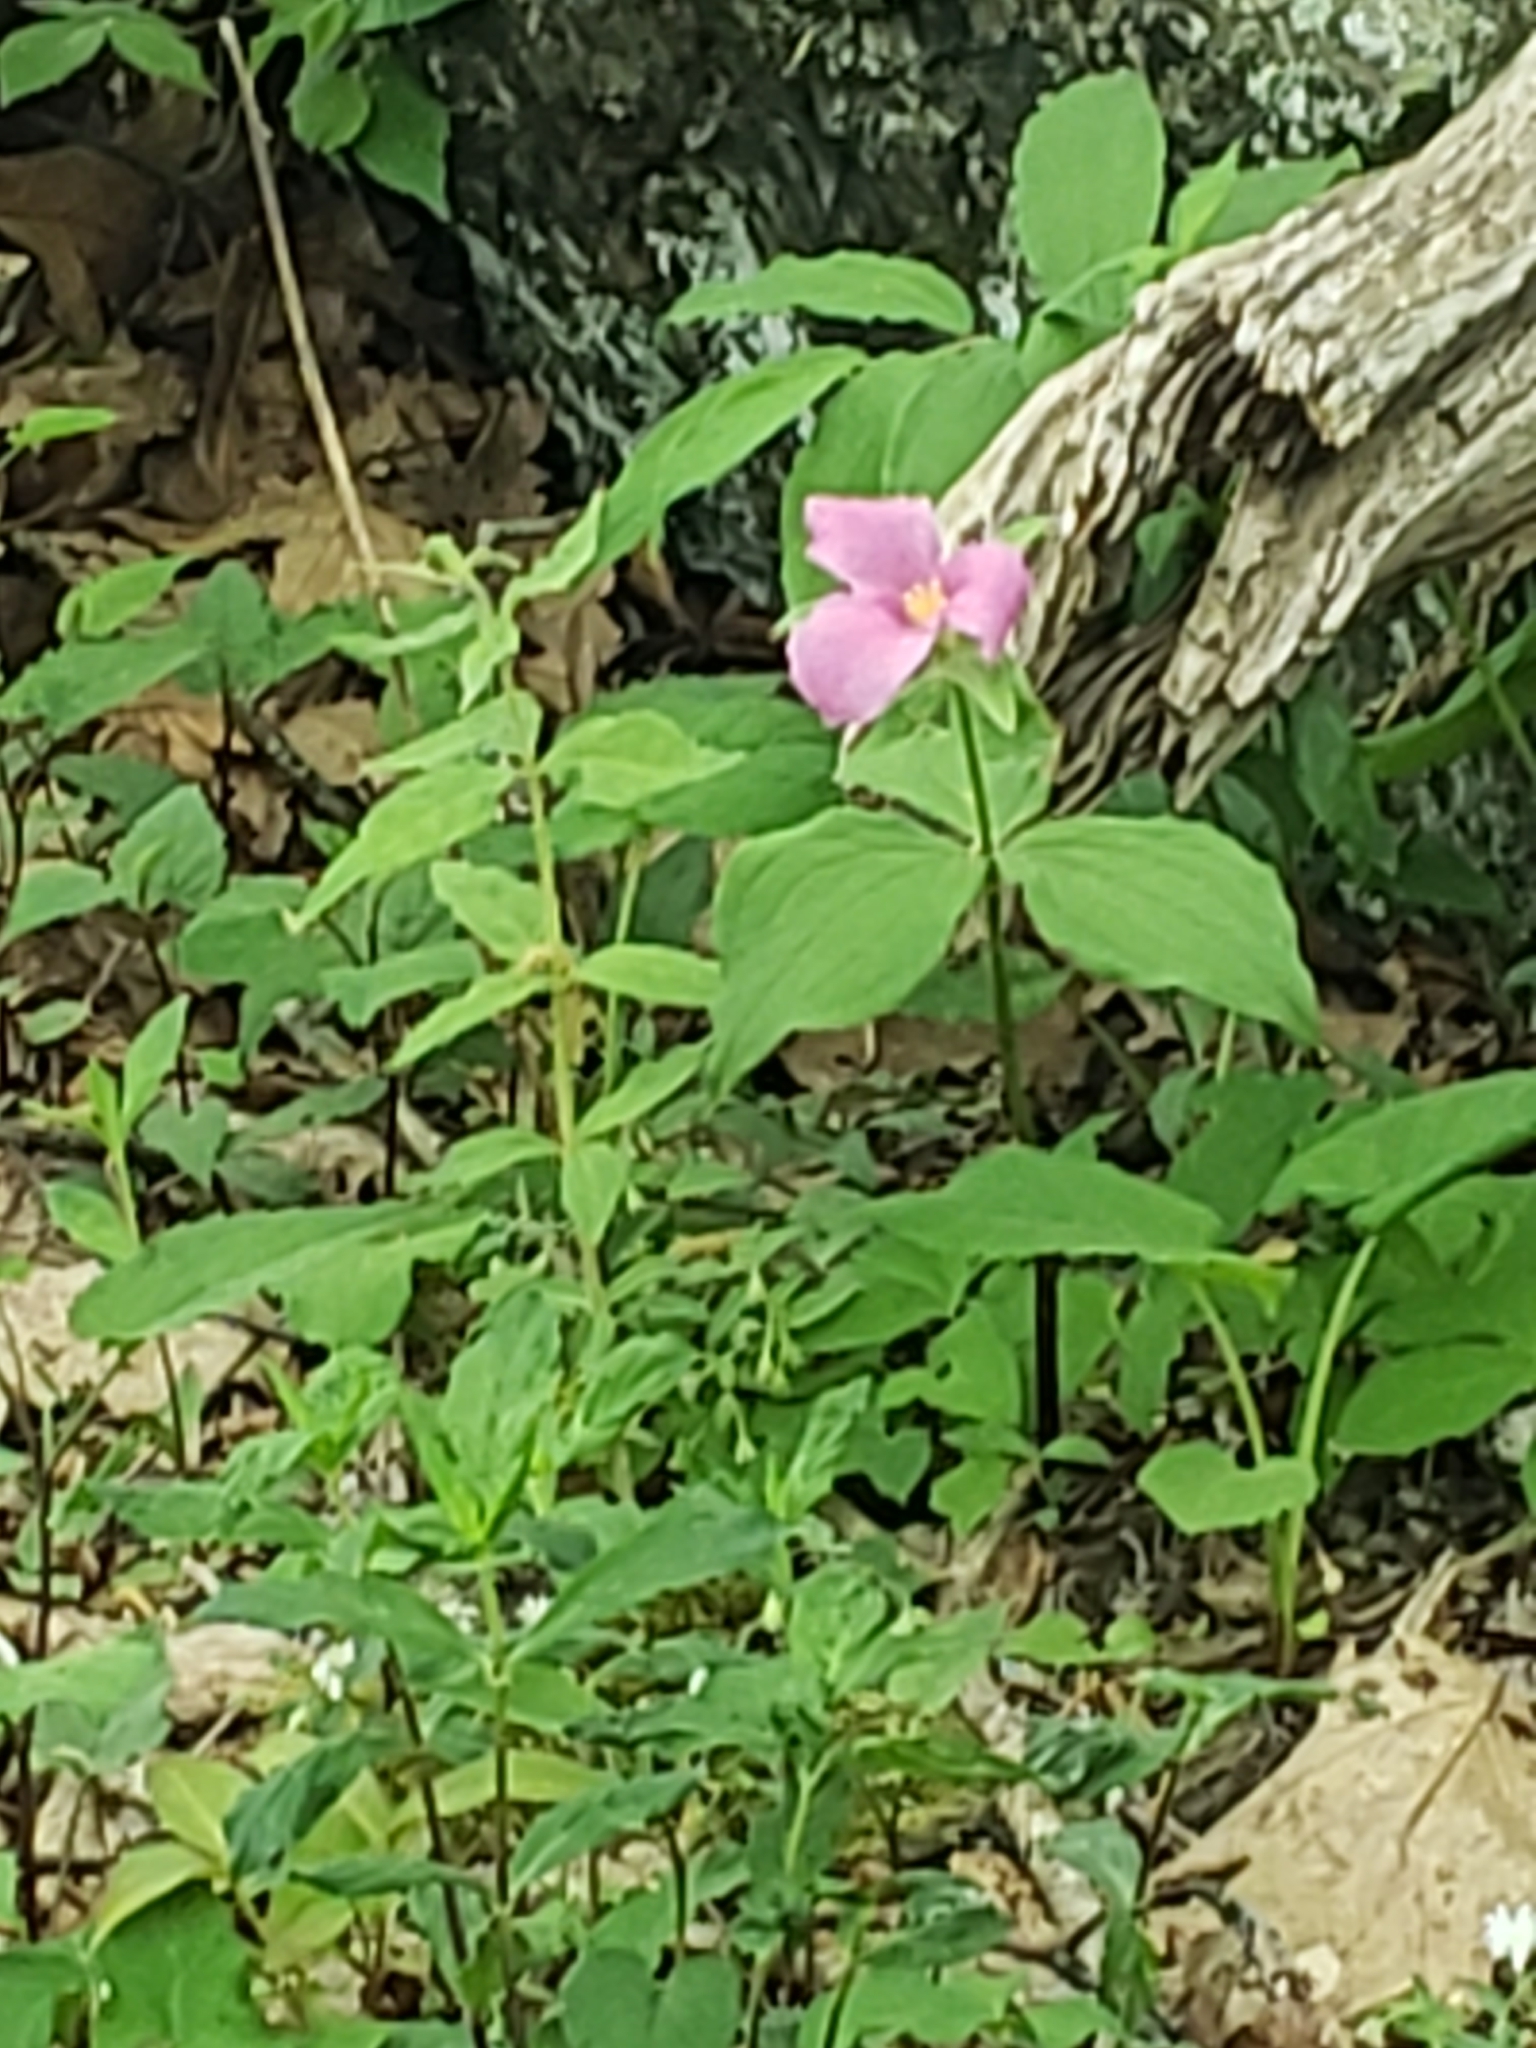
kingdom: Plantae
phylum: Tracheophyta
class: Liliopsida
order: Liliales
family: Melanthiaceae
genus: Trillium
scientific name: Trillium grandiflorum
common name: Great white trillium
